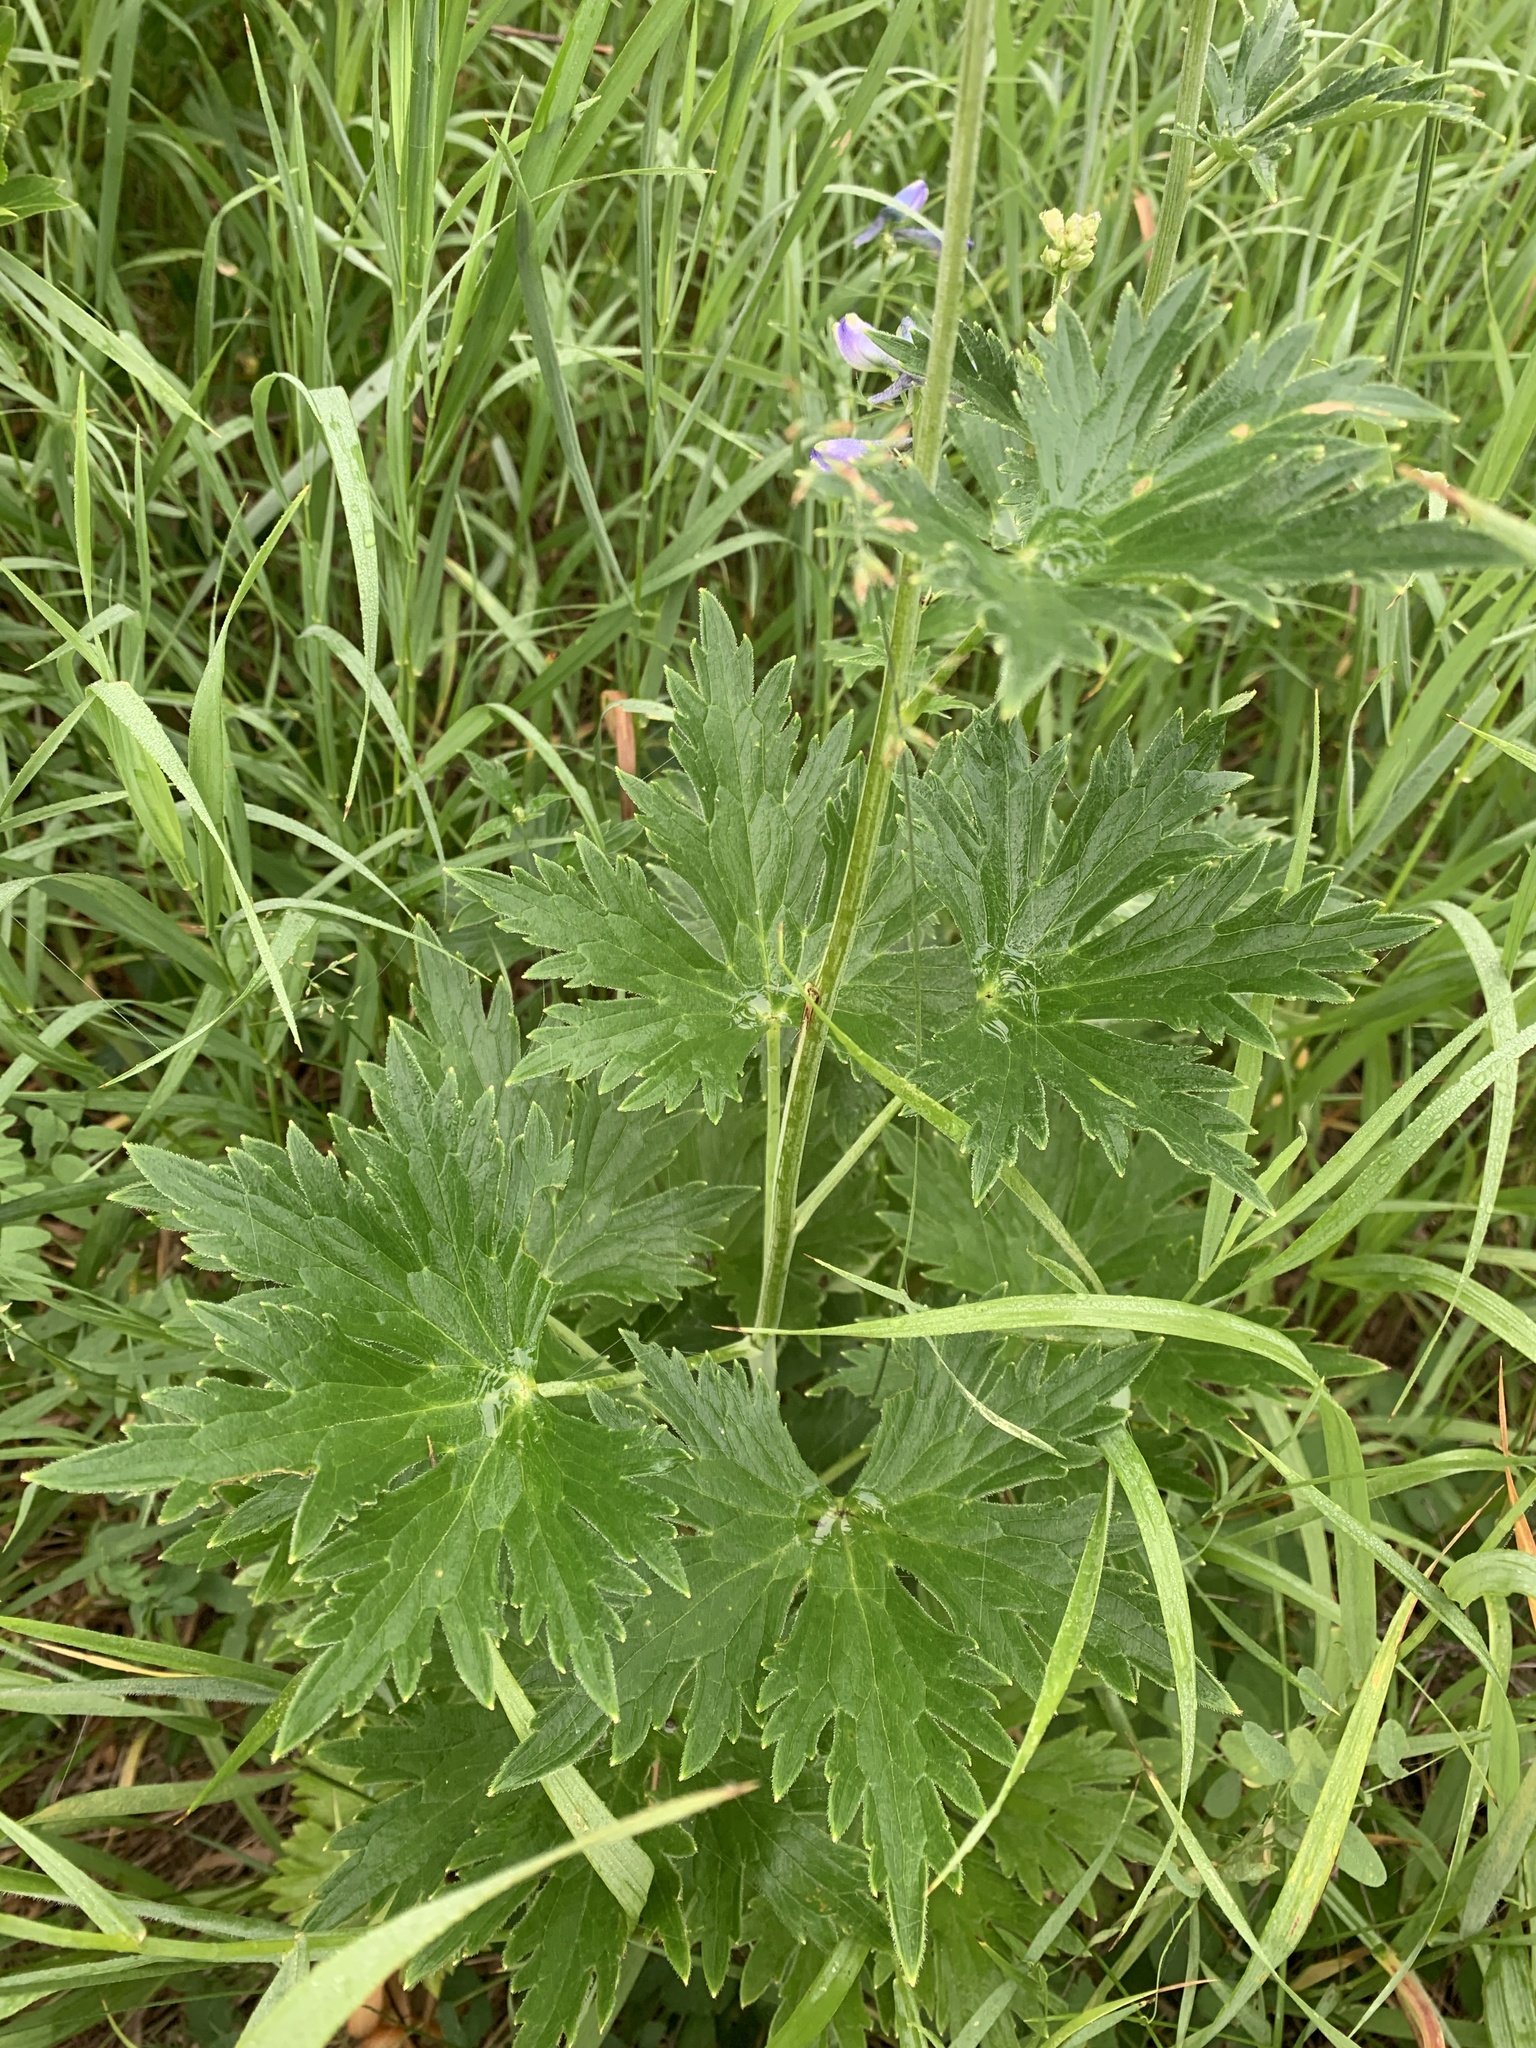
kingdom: Plantae
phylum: Tracheophyta
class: Magnoliopsida
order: Ranunculales
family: Ranunculaceae
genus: Delphinium
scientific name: Delphinium cultorum
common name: Garden delphinium
